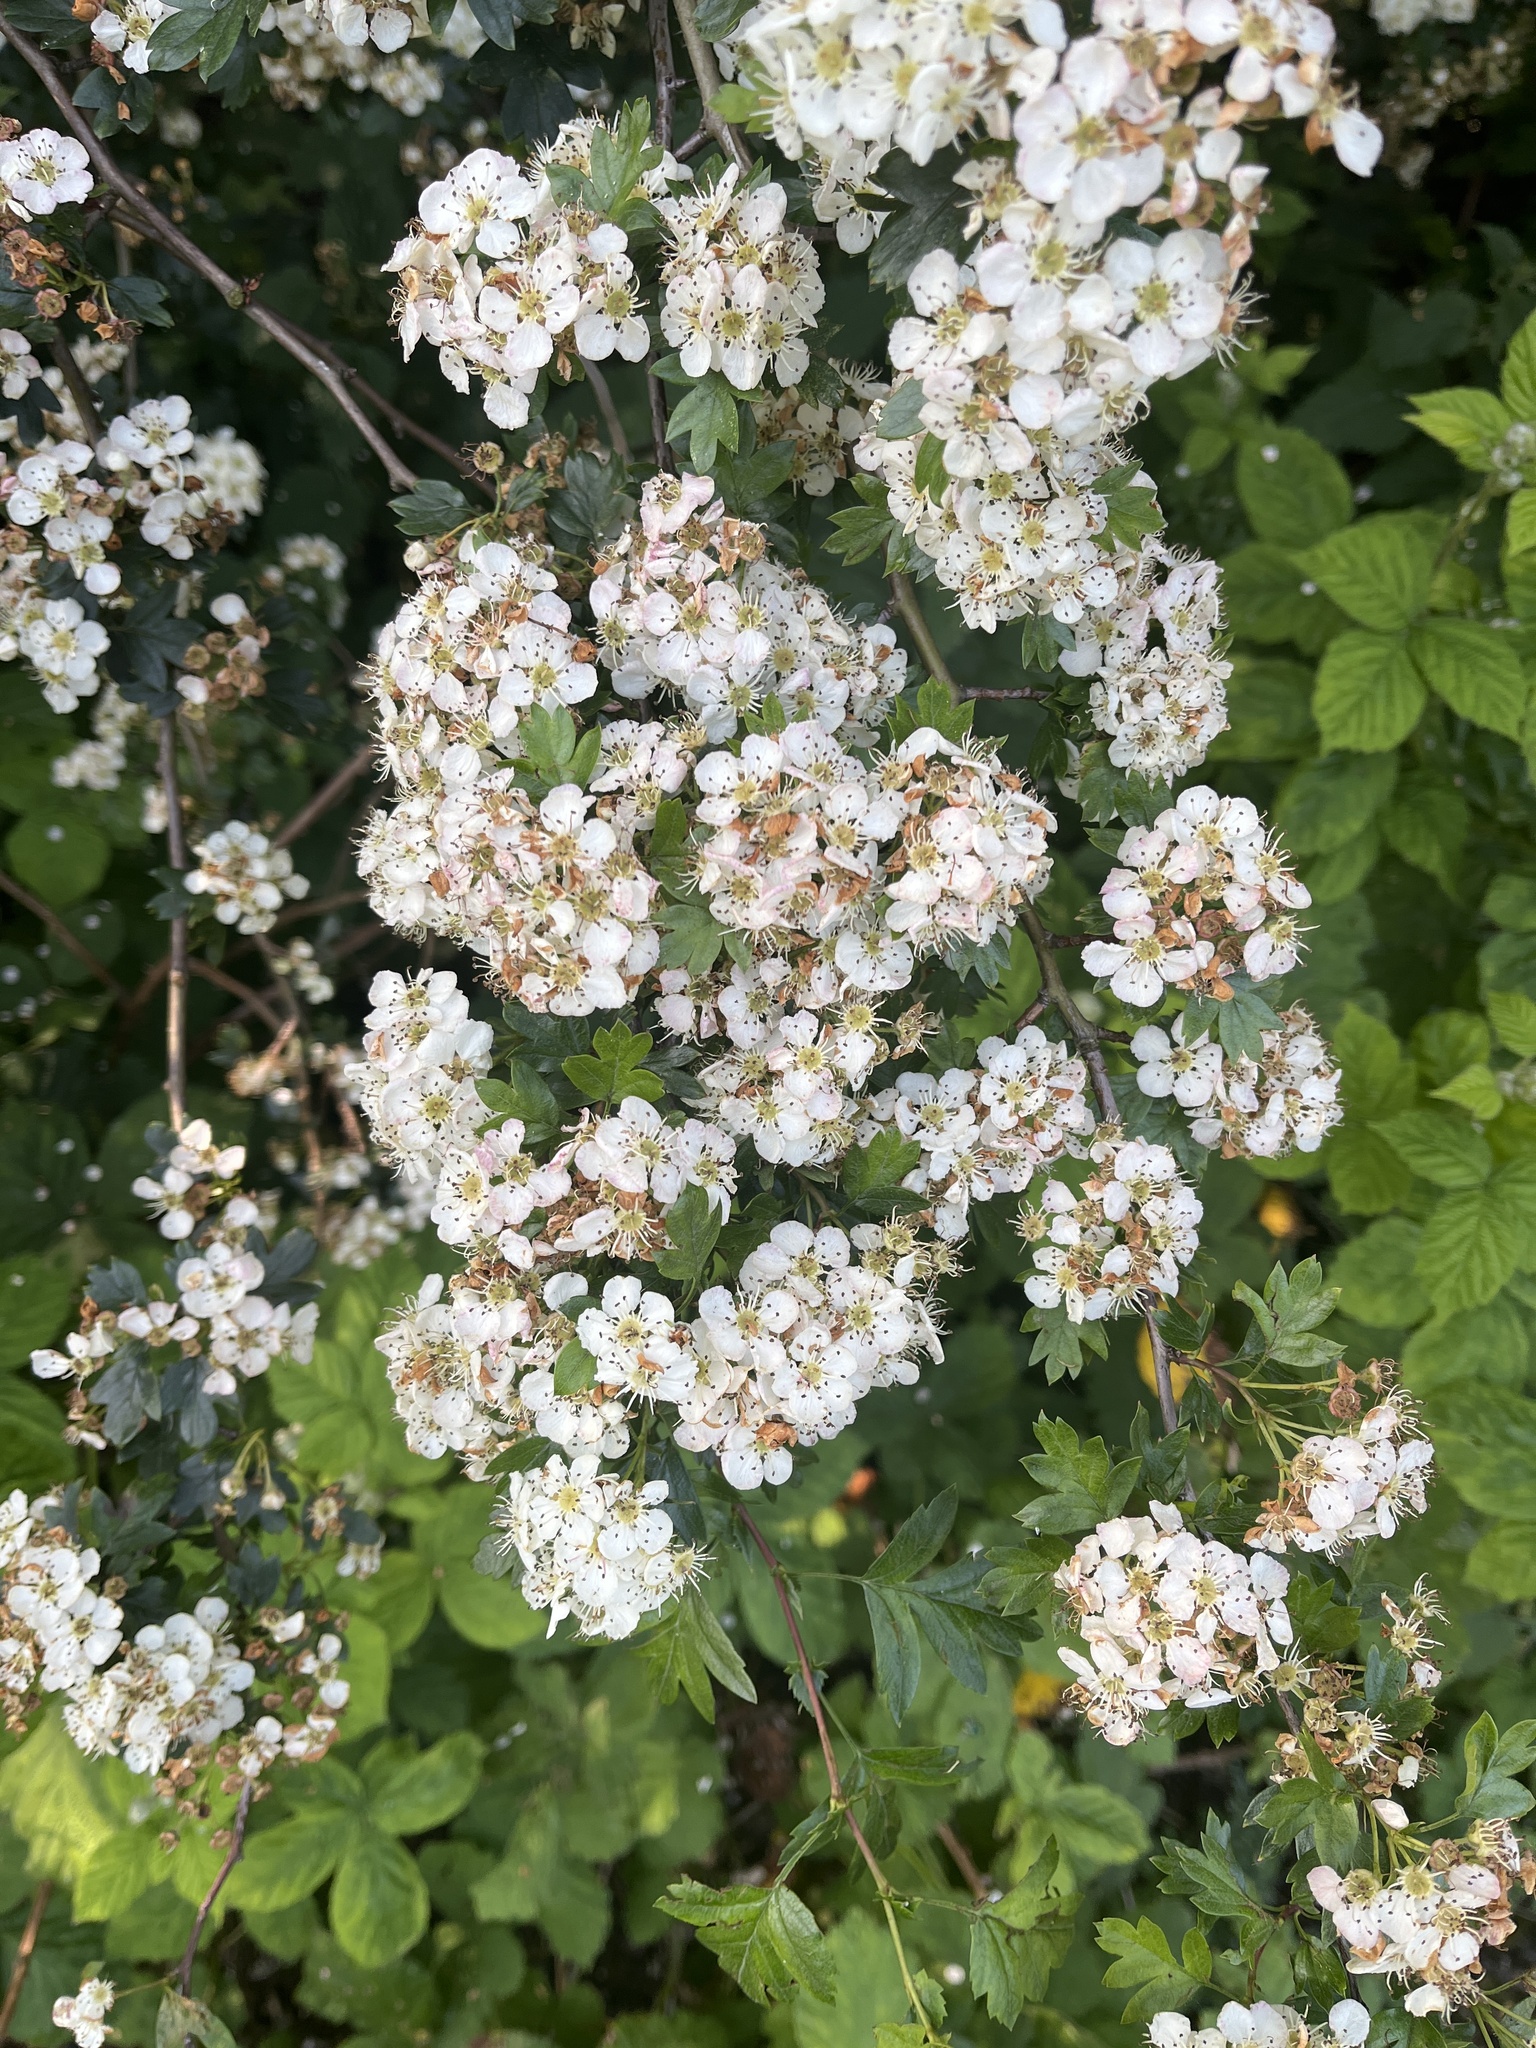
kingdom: Plantae
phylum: Tracheophyta
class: Magnoliopsida
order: Rosales
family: Rosaceae
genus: Crataegus
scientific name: Crataegus monogyna
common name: Hawthorn
